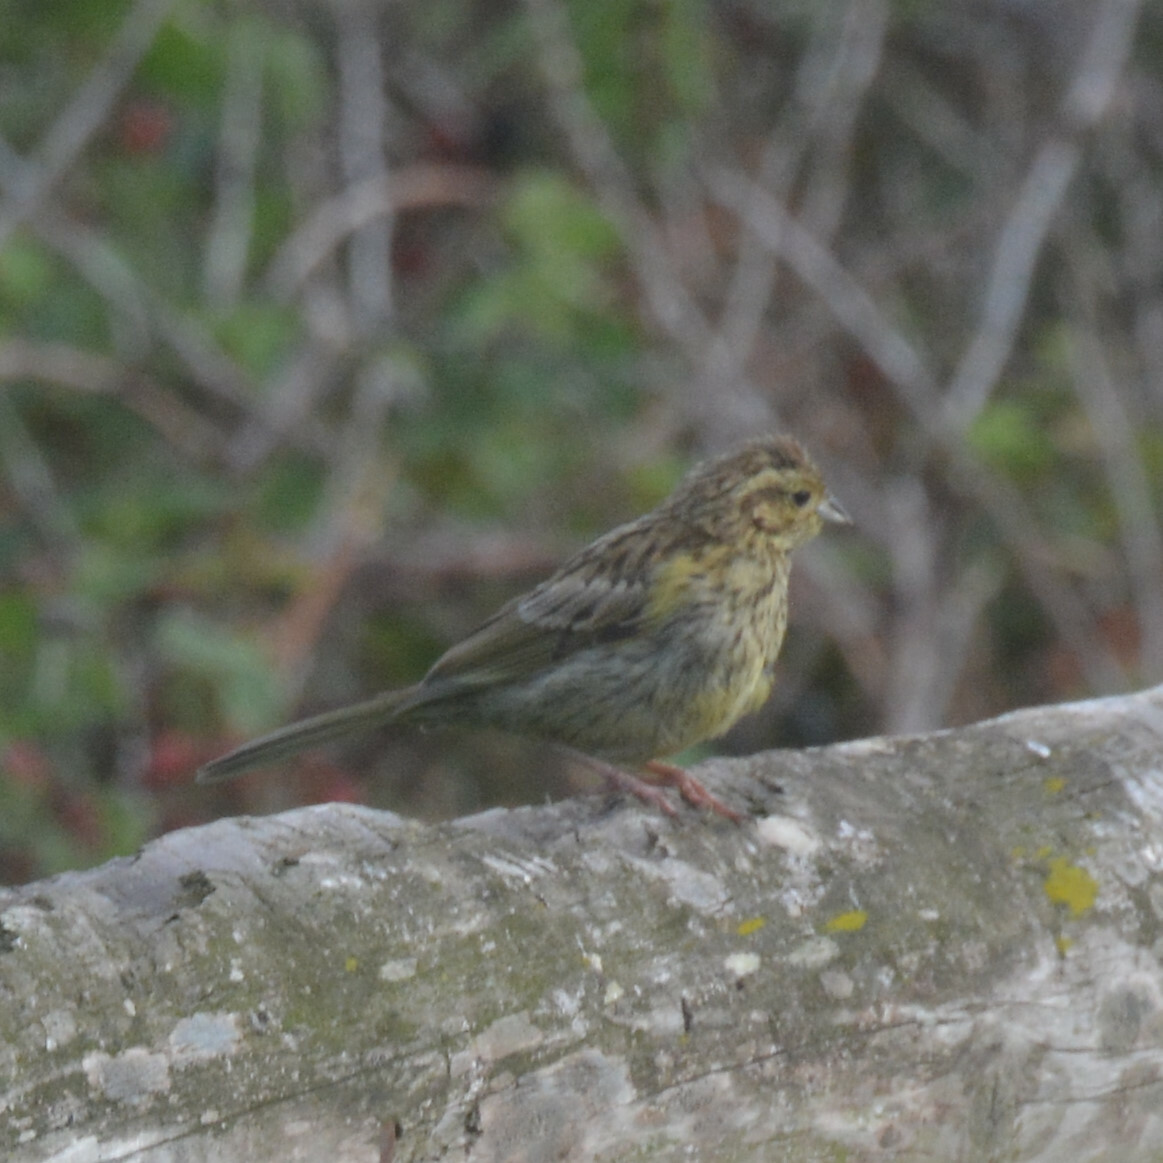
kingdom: Animalia
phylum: Chordata
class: Aves
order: Passeriformes
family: Emberizidae
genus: Emberiza
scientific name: Emberiza cirlus
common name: Cirl bunting
